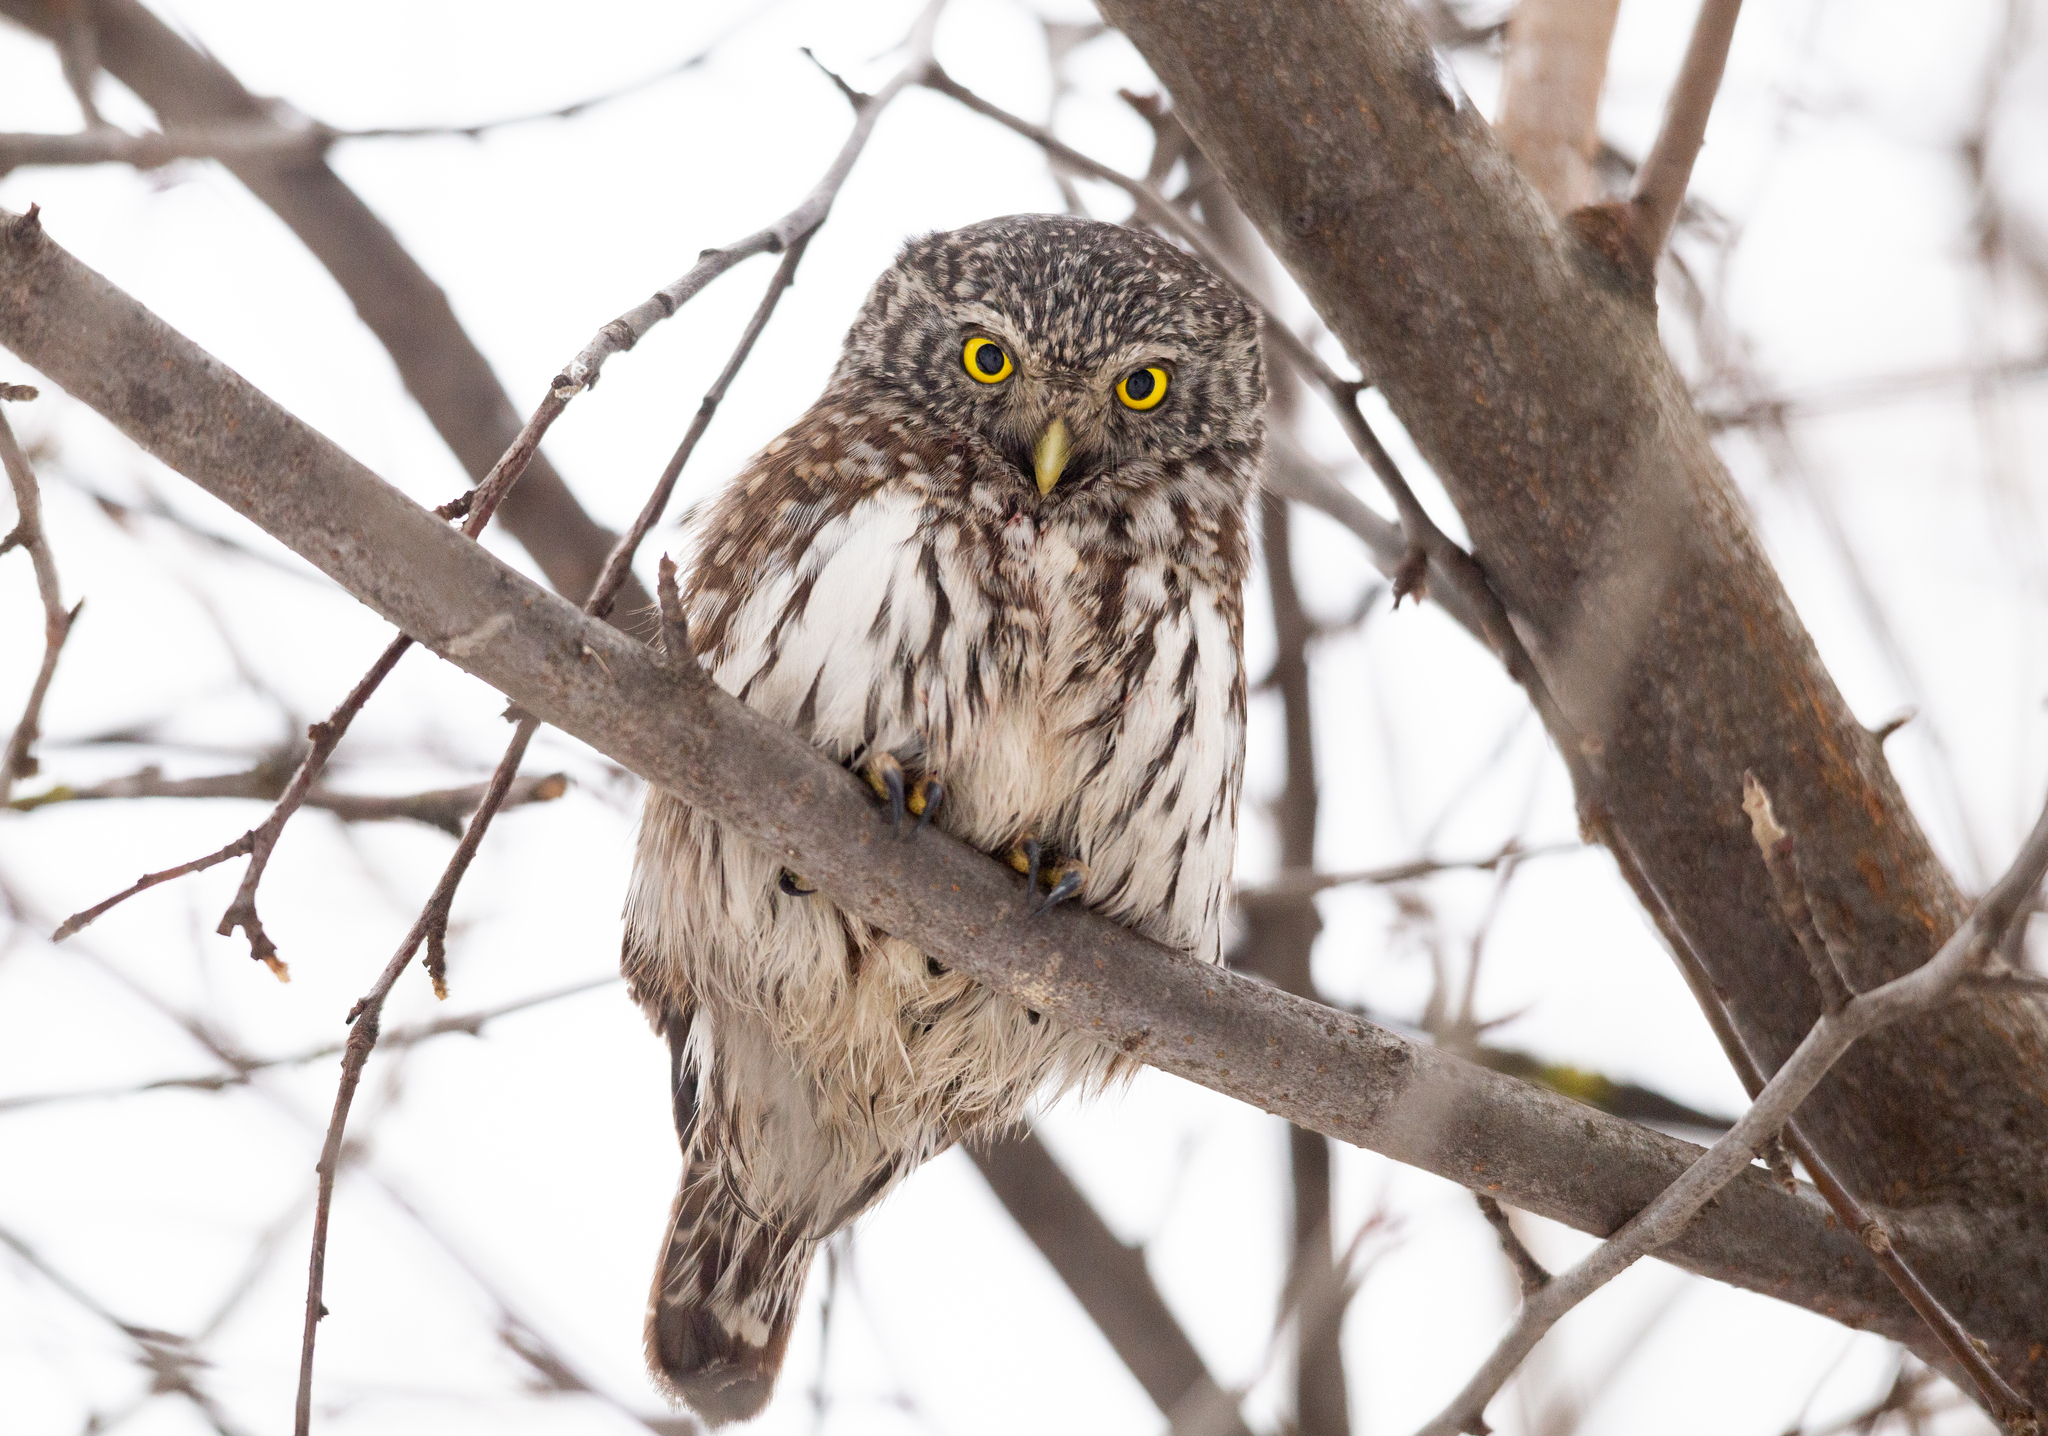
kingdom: Animalia
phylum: Chordata
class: Aves
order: Strigiformes
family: Strigidae
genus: Glaucidium
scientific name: Glaucidium passerinum
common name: Eurasian pygmy owl
